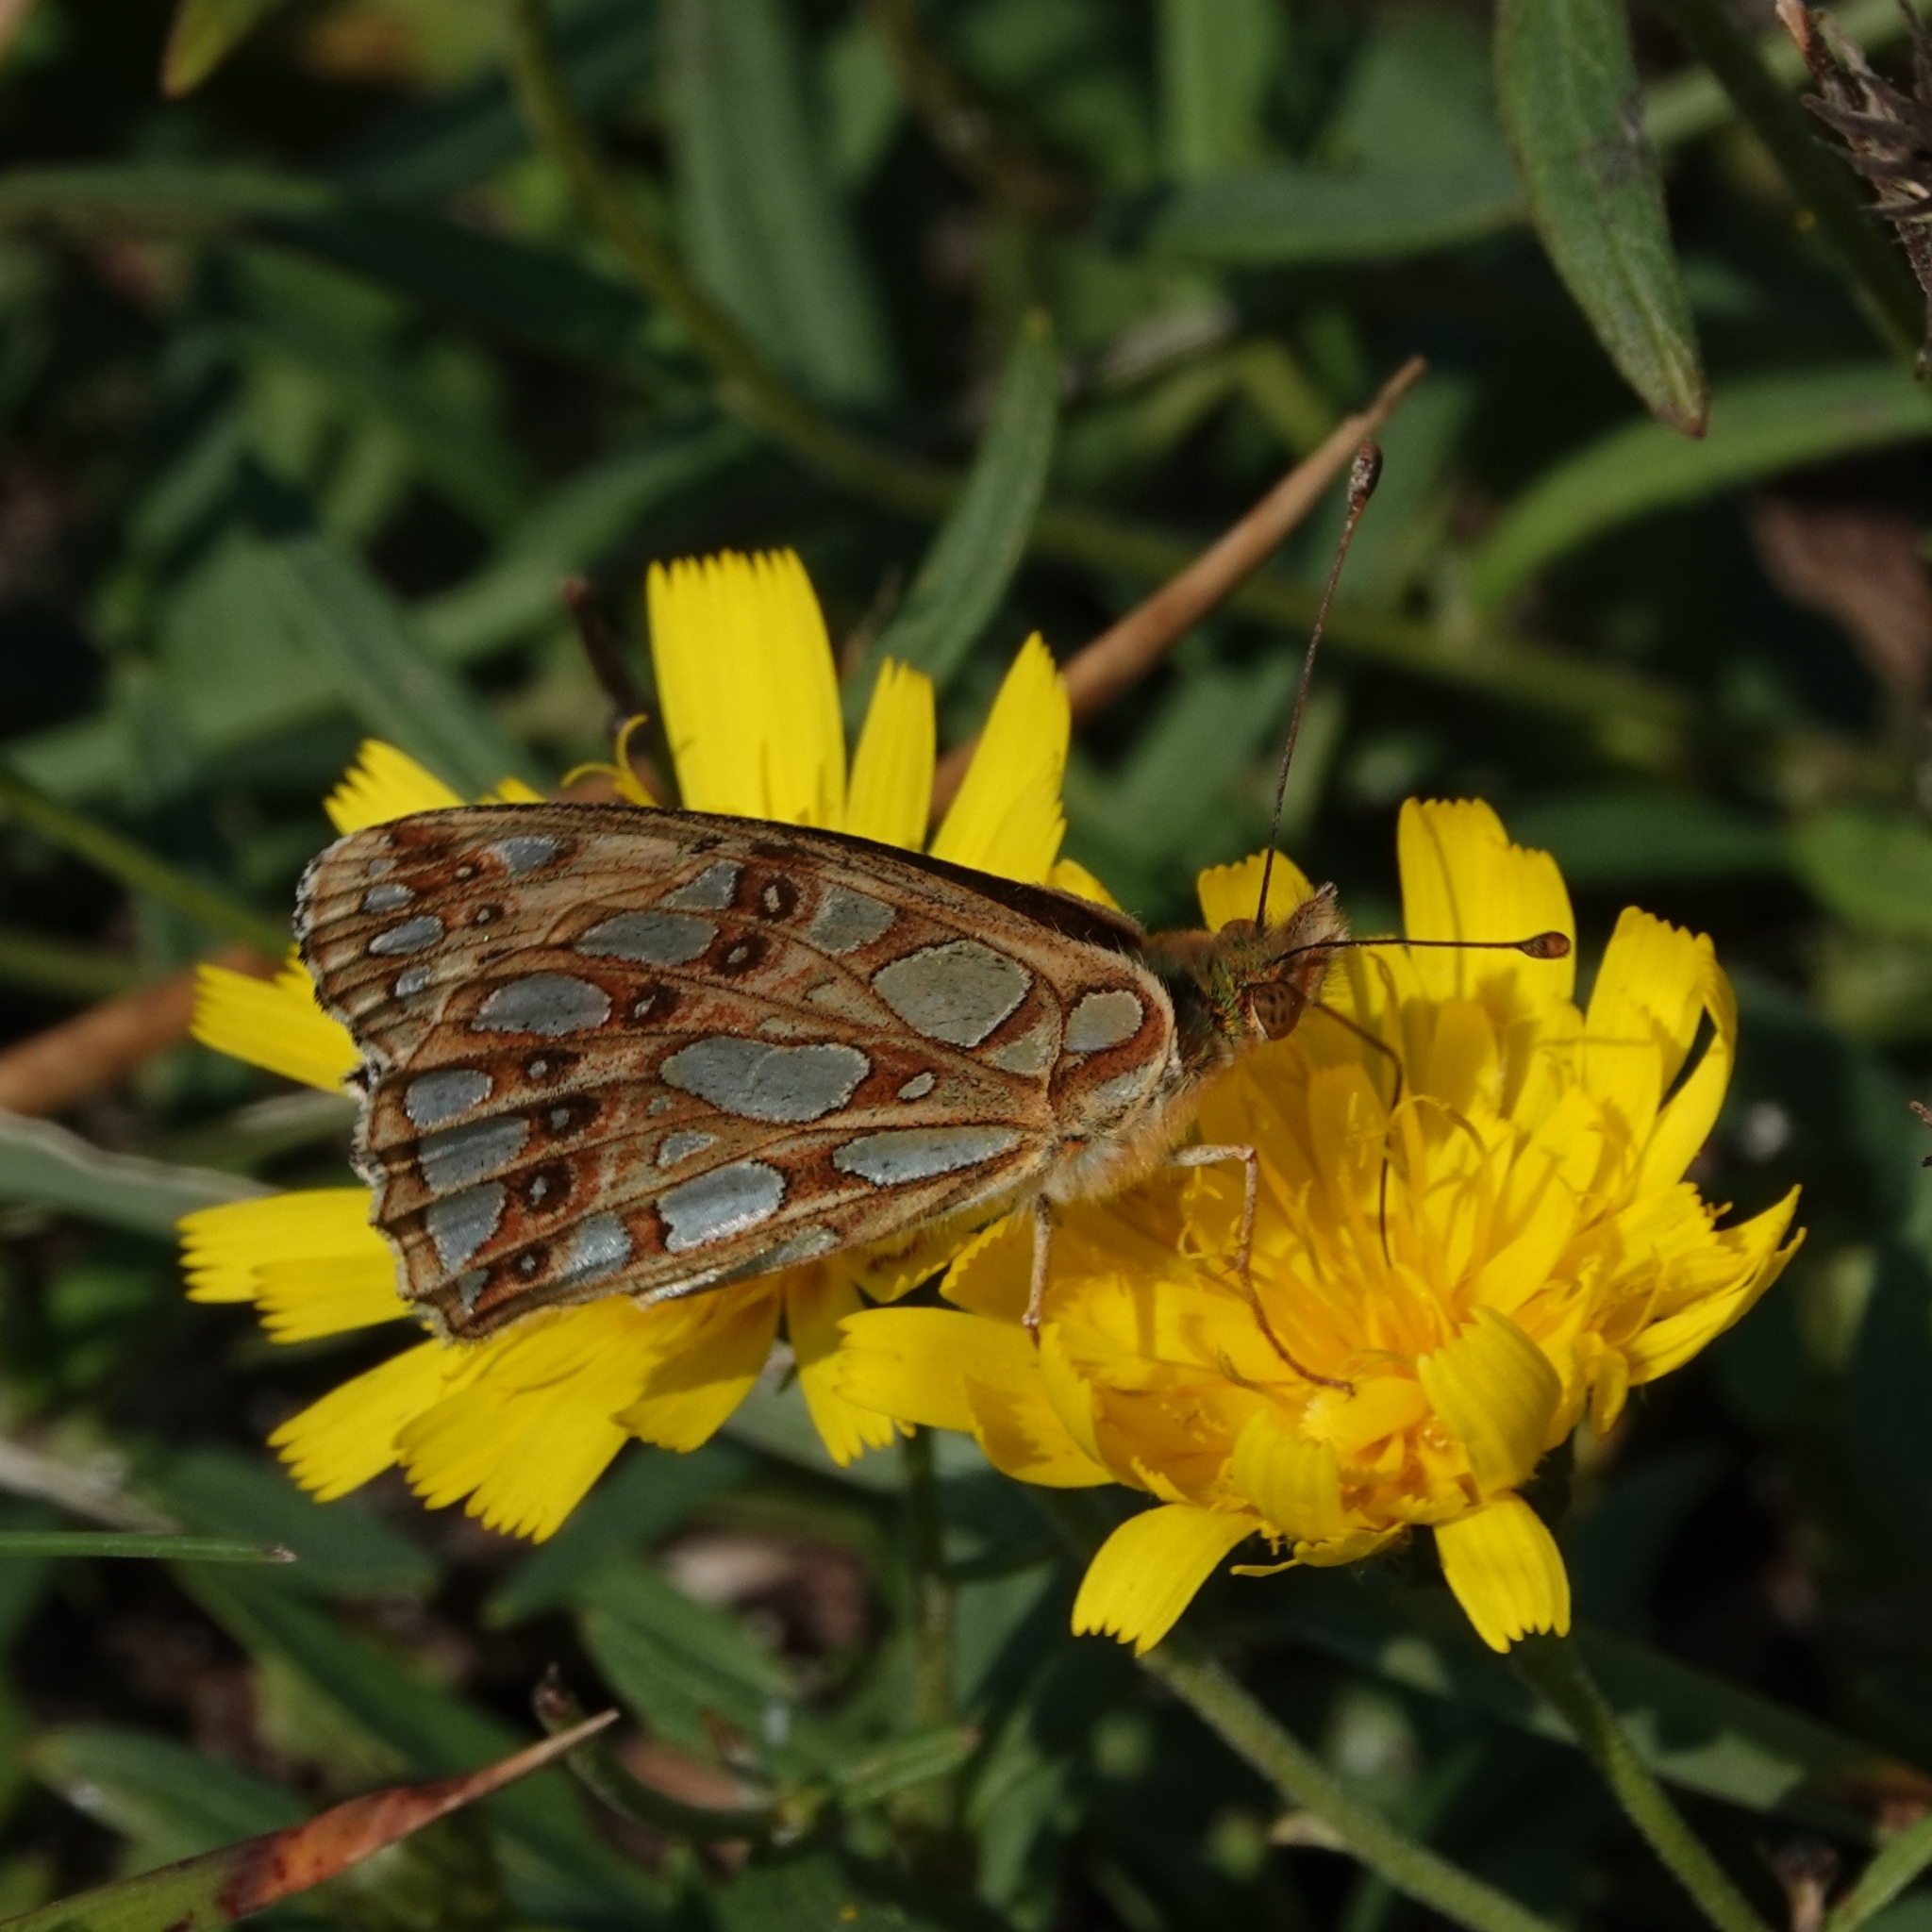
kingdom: Animalia
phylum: Arthropoda
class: Insecta
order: Lepidoptera
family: Nymphalidae
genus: Issoria
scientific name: Issoria lathonia
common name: Queen of spain fritillary
